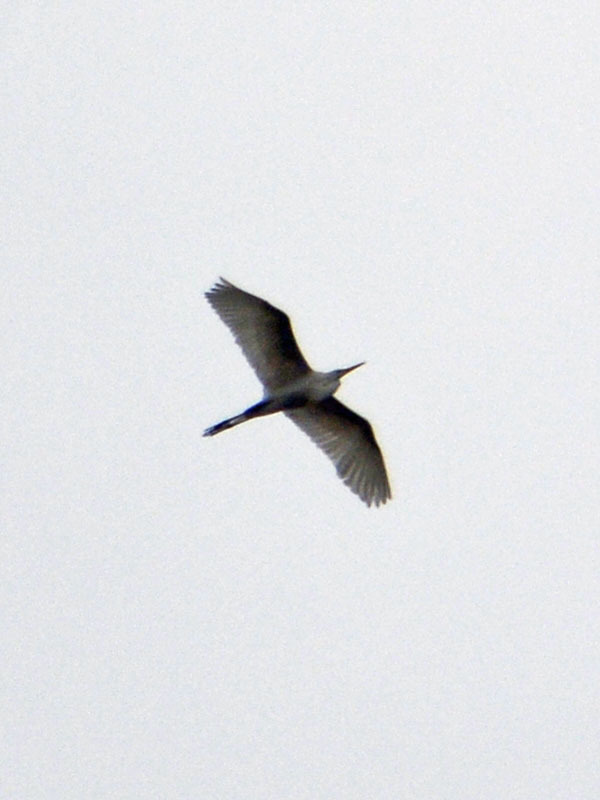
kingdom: Animalia
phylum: Chordata
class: Aves
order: Pelecaniformes
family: Ardeidae
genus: Ardea
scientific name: Ardea alba
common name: Great egret
